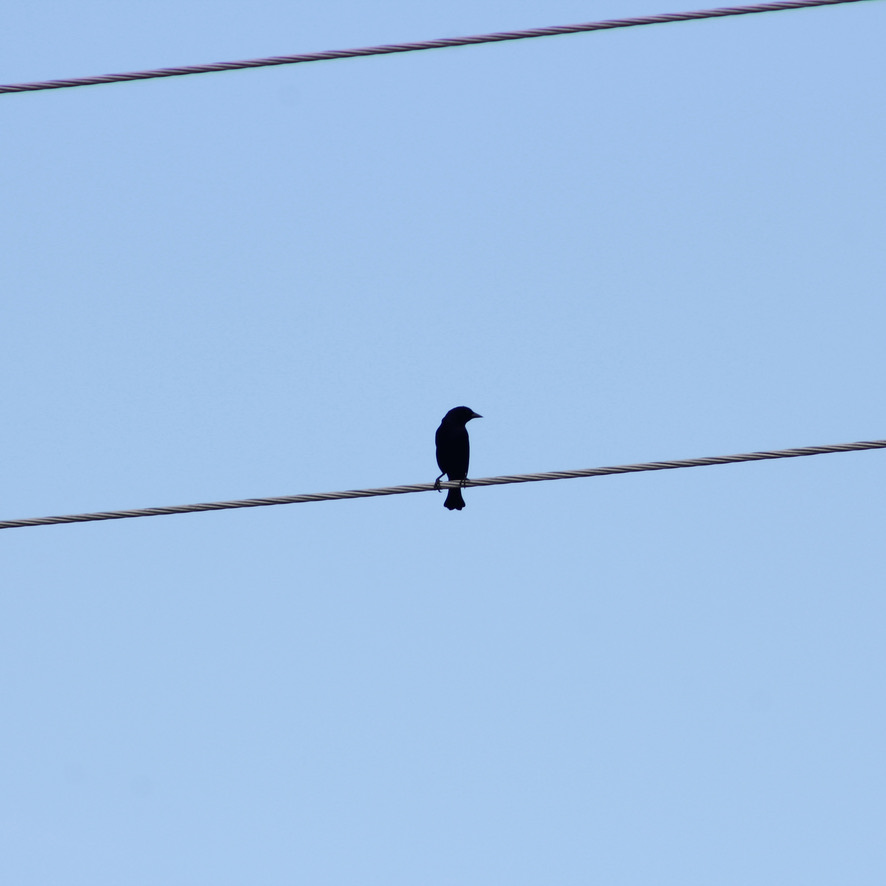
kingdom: Animalia
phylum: Chordata
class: Aves
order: Passeriformes
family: Icteridae
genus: Molothrus
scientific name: Molothrus bonariensis
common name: Shiny cowbird
